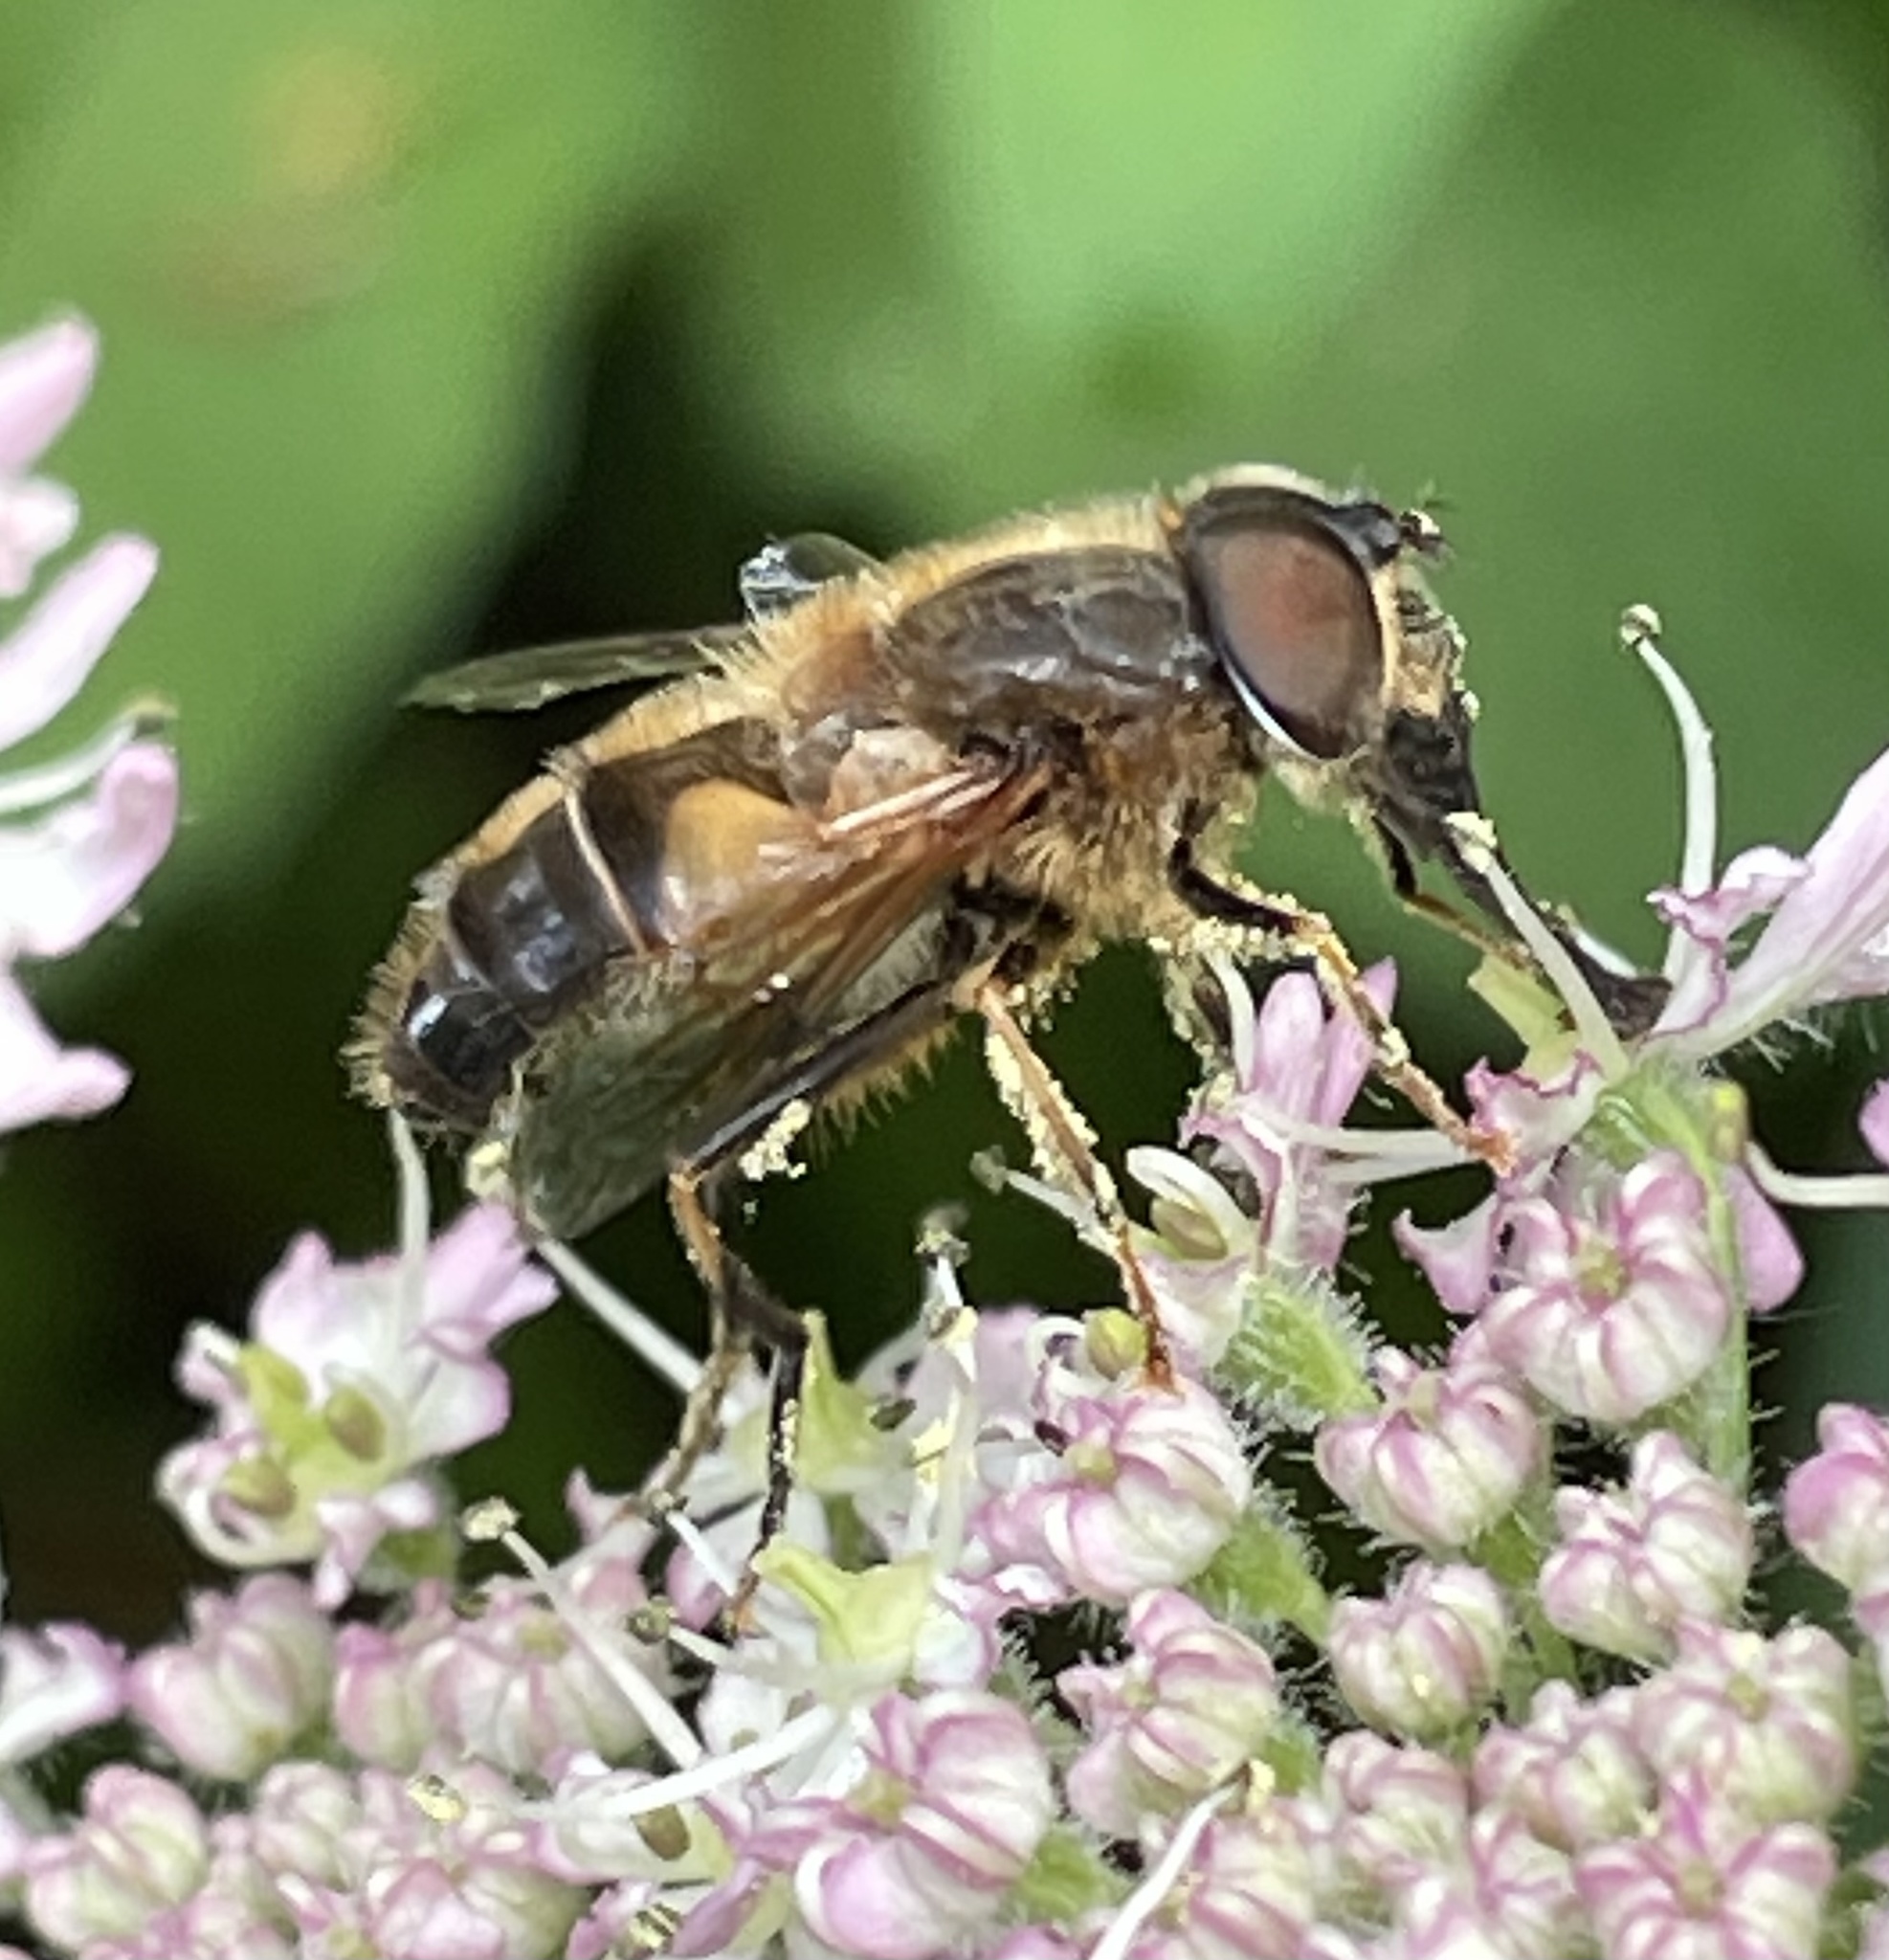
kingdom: Animalia
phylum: Arthropoda
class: Insecta
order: Diptera
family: Syrphidae
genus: Eristalis
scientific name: Eristalis pertinax
